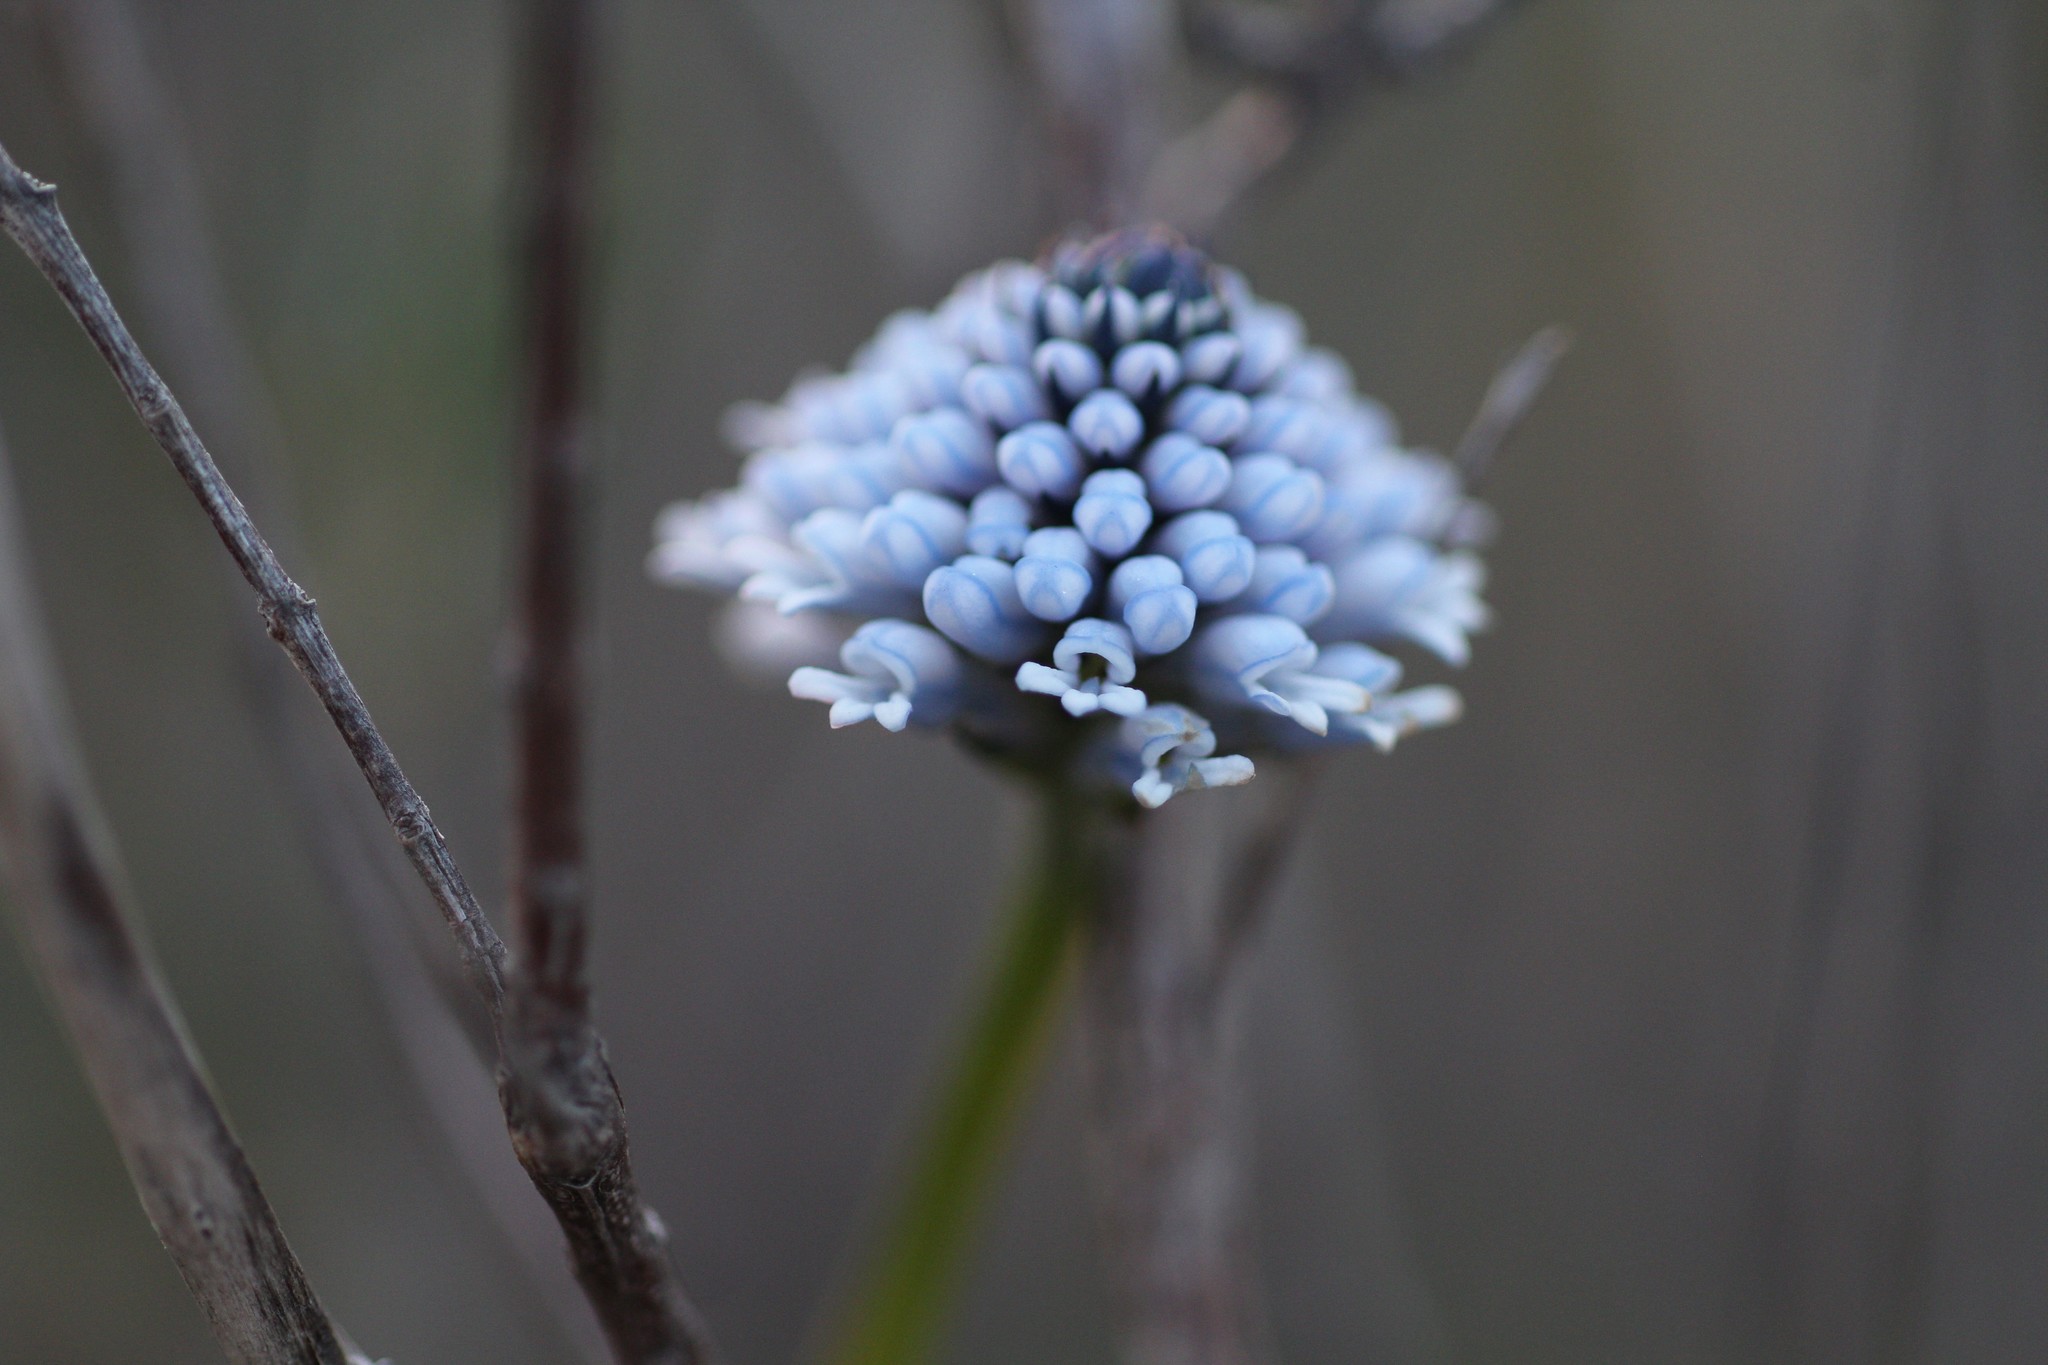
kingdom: Plantae
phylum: Tracheophyta
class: Magnoliopsida
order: Proteales
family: Proteaceae
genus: Conospermum
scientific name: Conospermum huegelii
